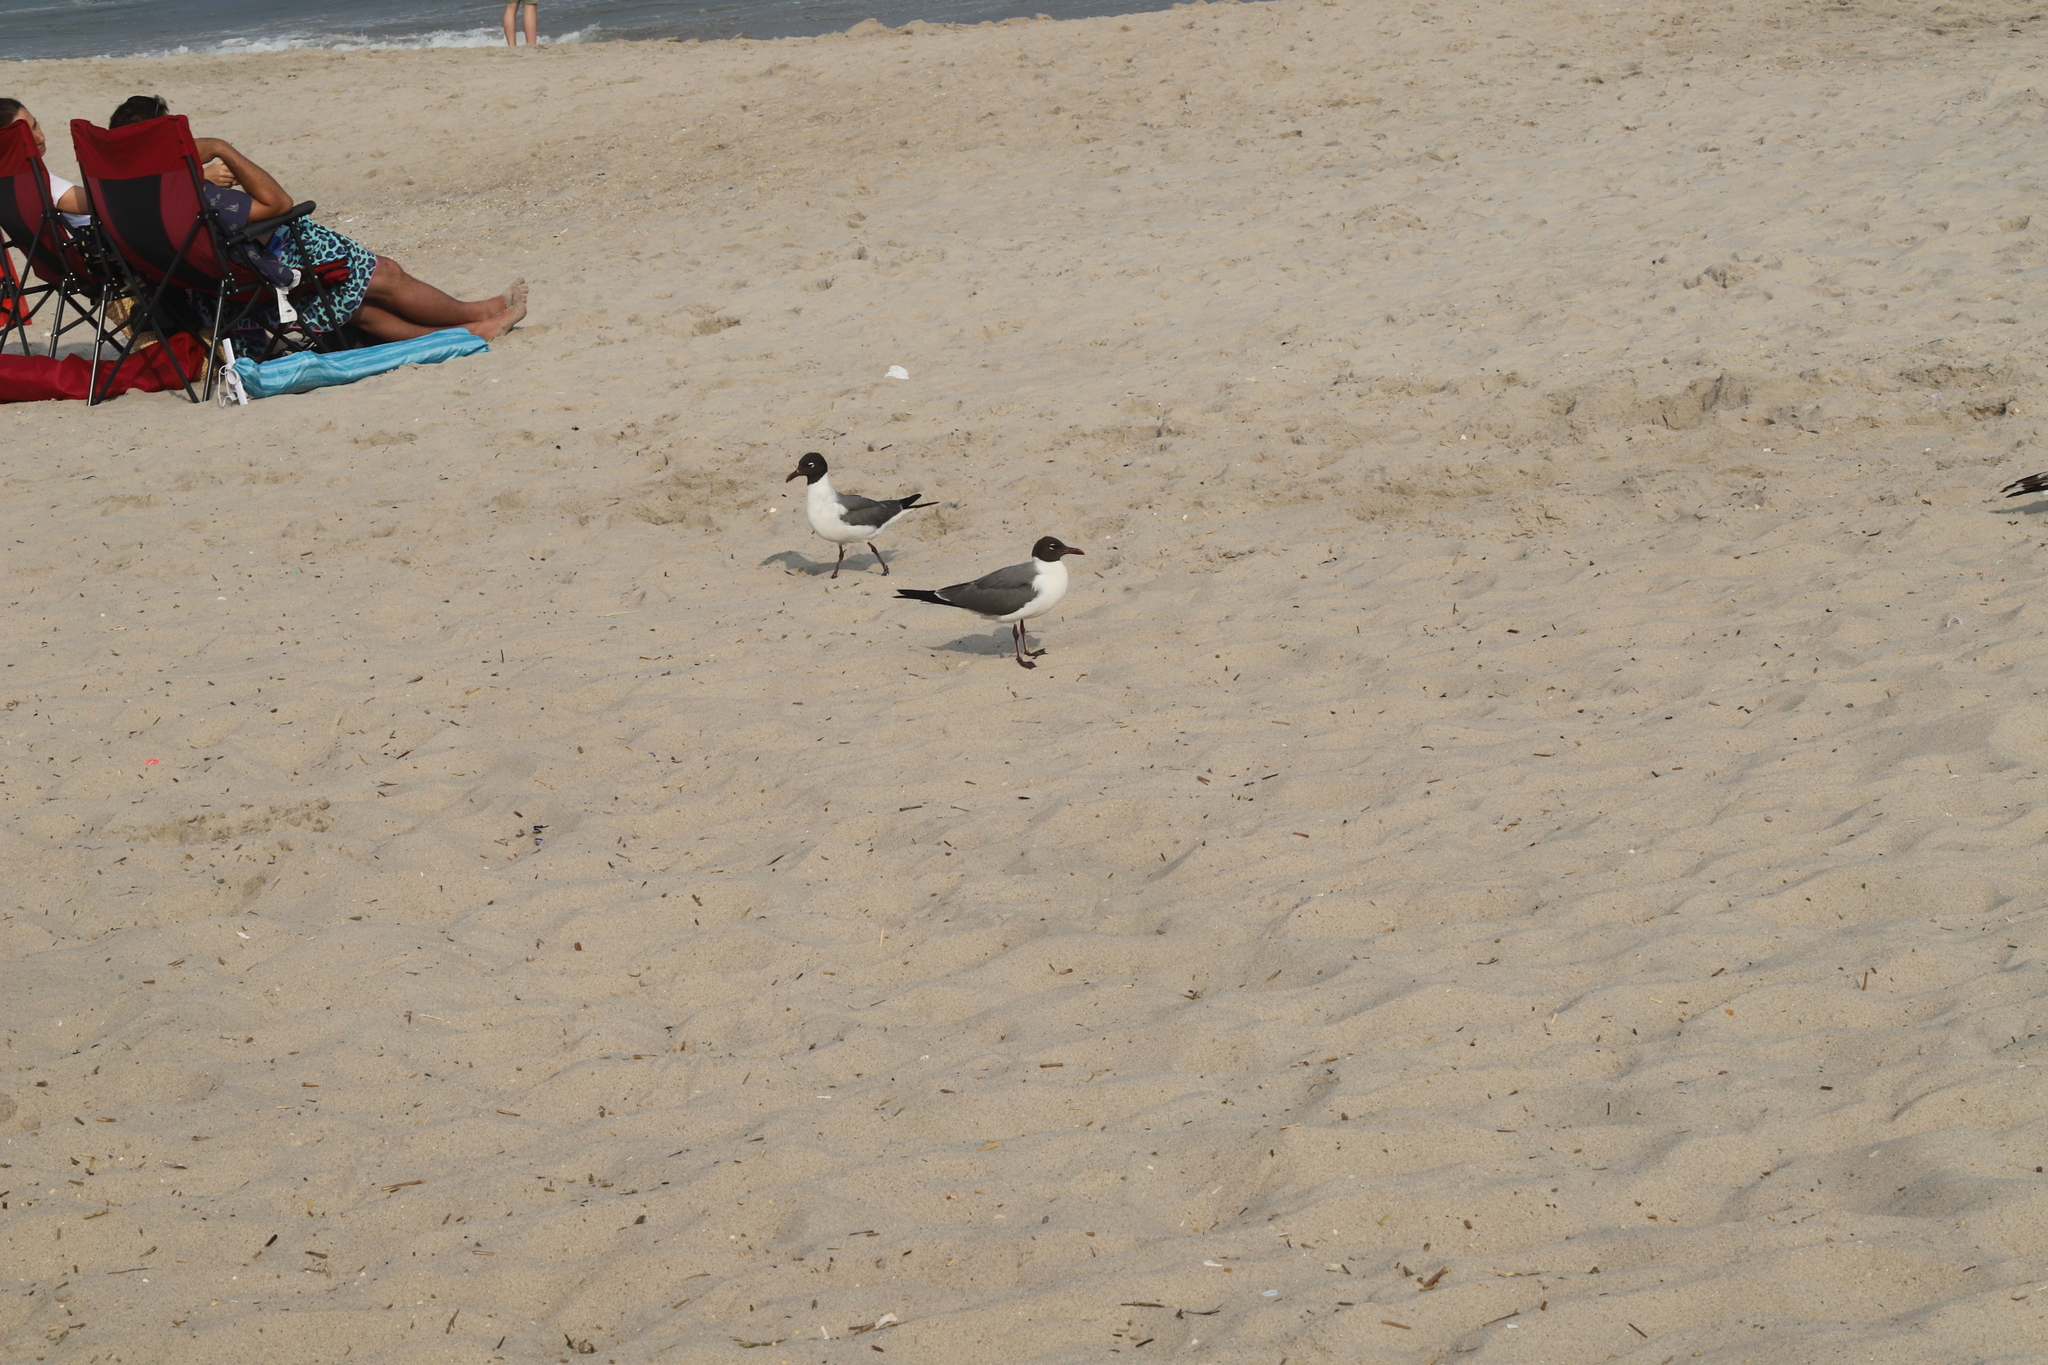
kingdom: Animalia
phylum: Chordata
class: Aves
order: Charadriiformes
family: Laridae
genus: Leucophaeus
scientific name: Leucophaeus atricilla
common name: Laughing gull
